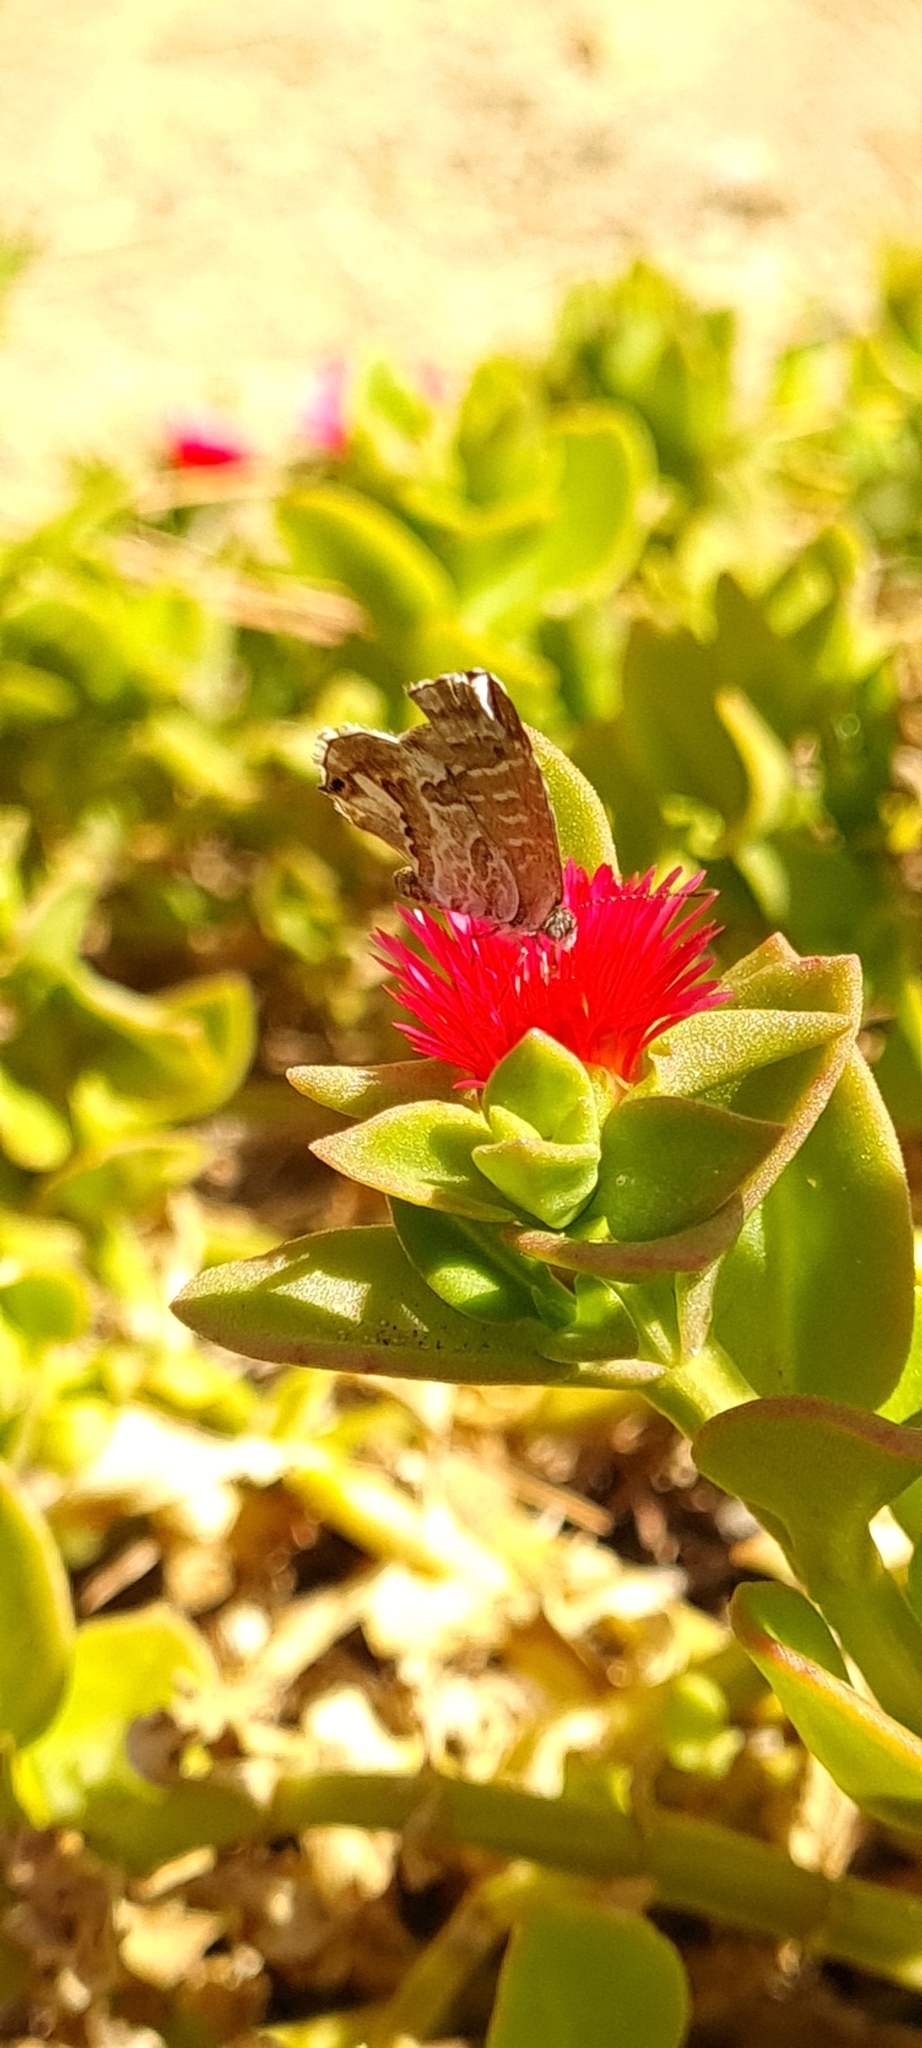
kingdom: Animalia
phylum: Arthropoda
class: Insecta
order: Lepidoptera
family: Lycaenidae
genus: Cacyreus
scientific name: Cacyreus marshalli
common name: Geranium bronze
